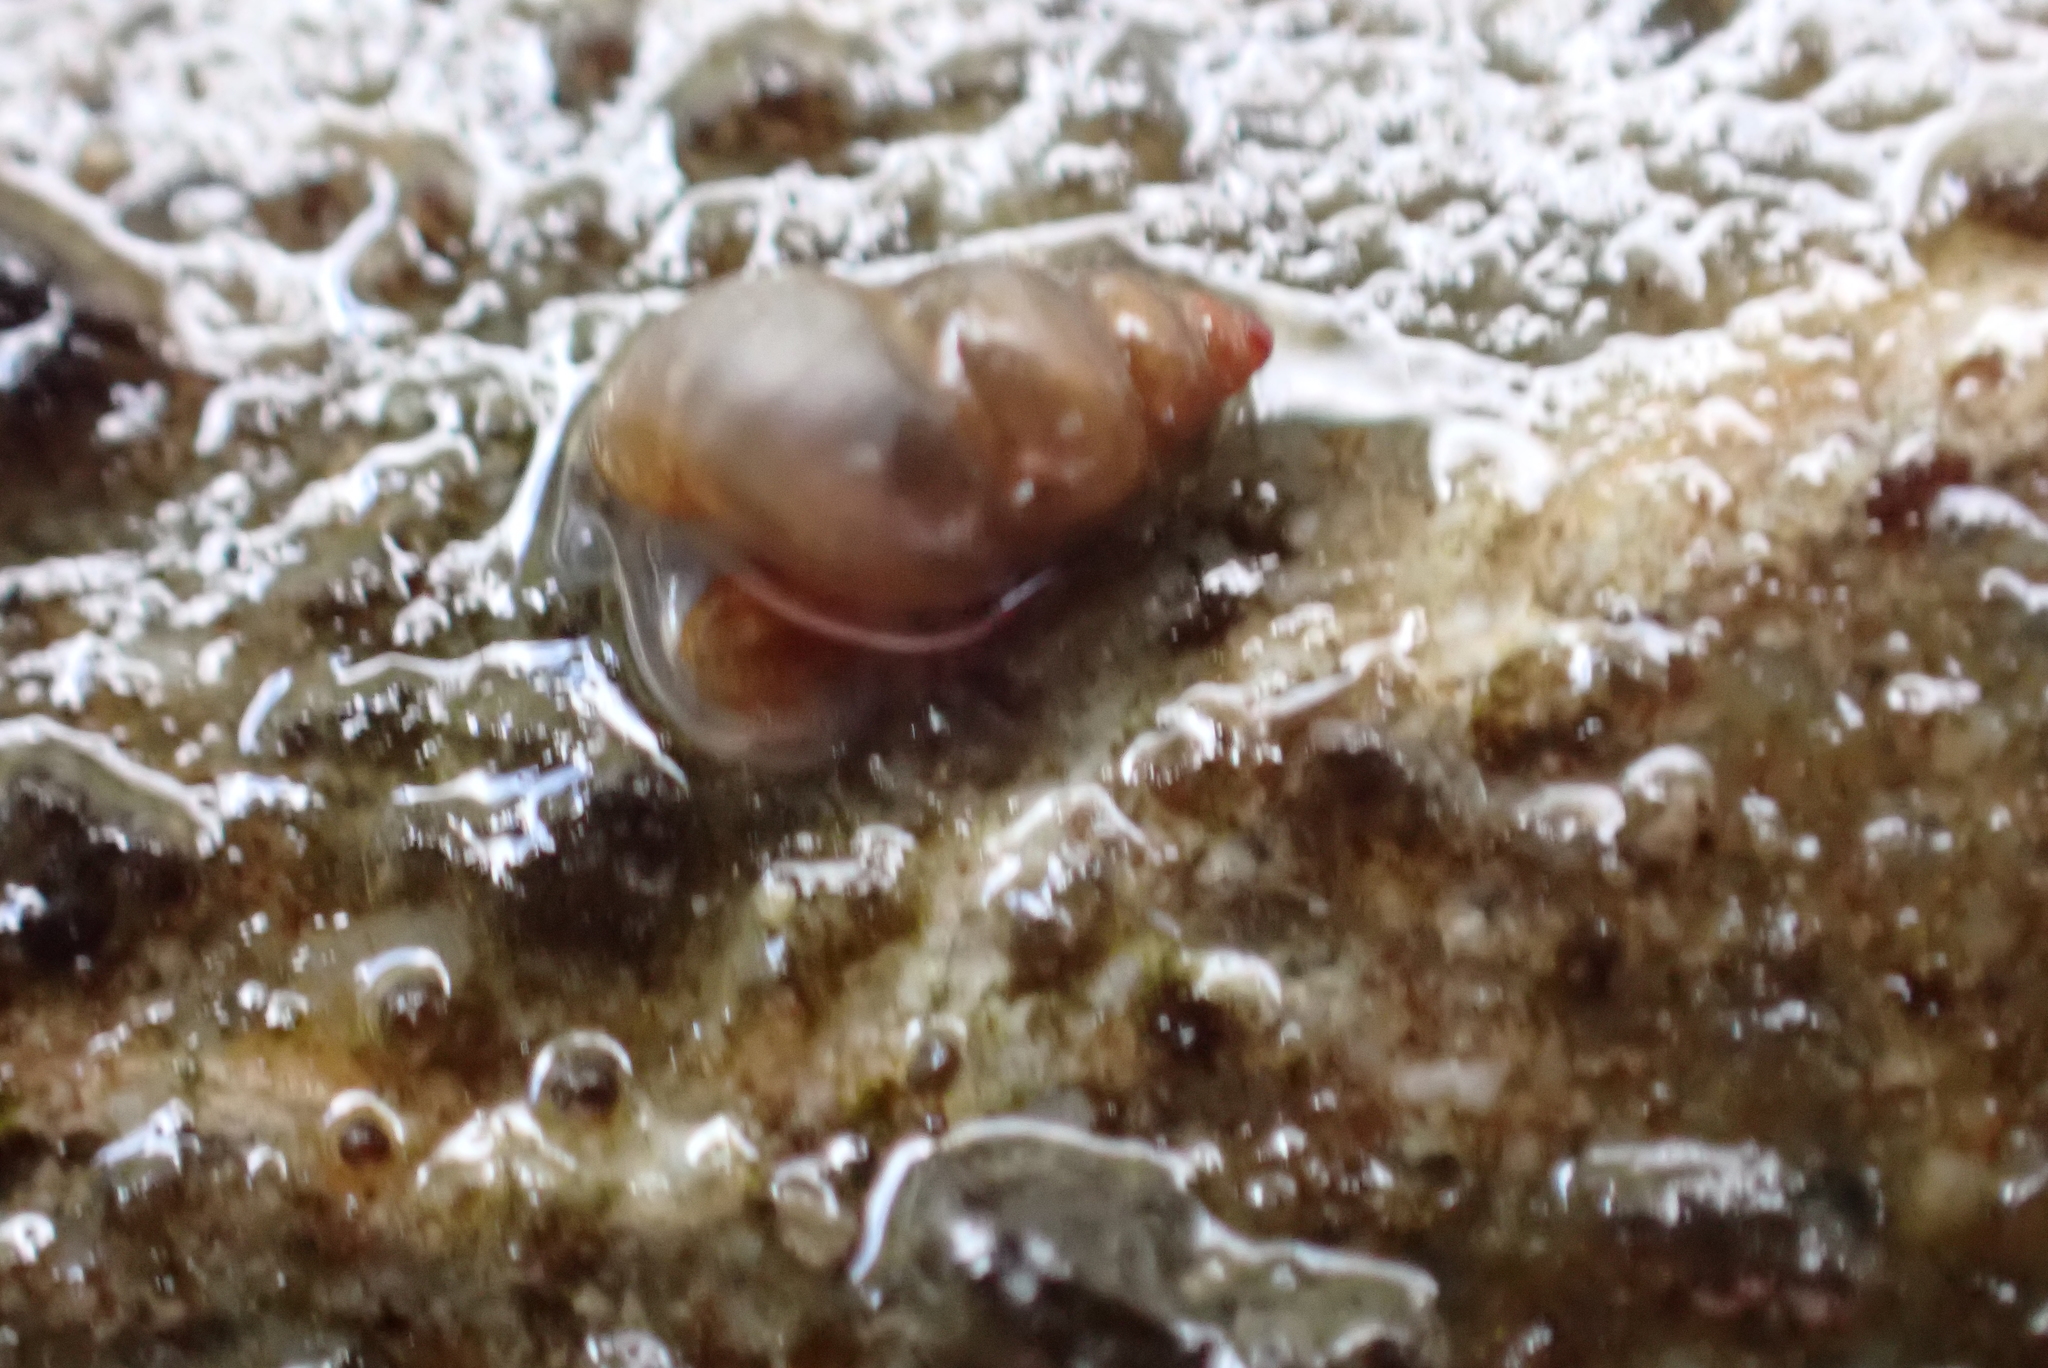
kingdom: Animalia
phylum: Mollusca
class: Gastropoda
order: Littorinimorpha
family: Tateidae
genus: Potamopyrgus
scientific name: Potamopyrgus antipodarum
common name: Jenkins' spire snail
